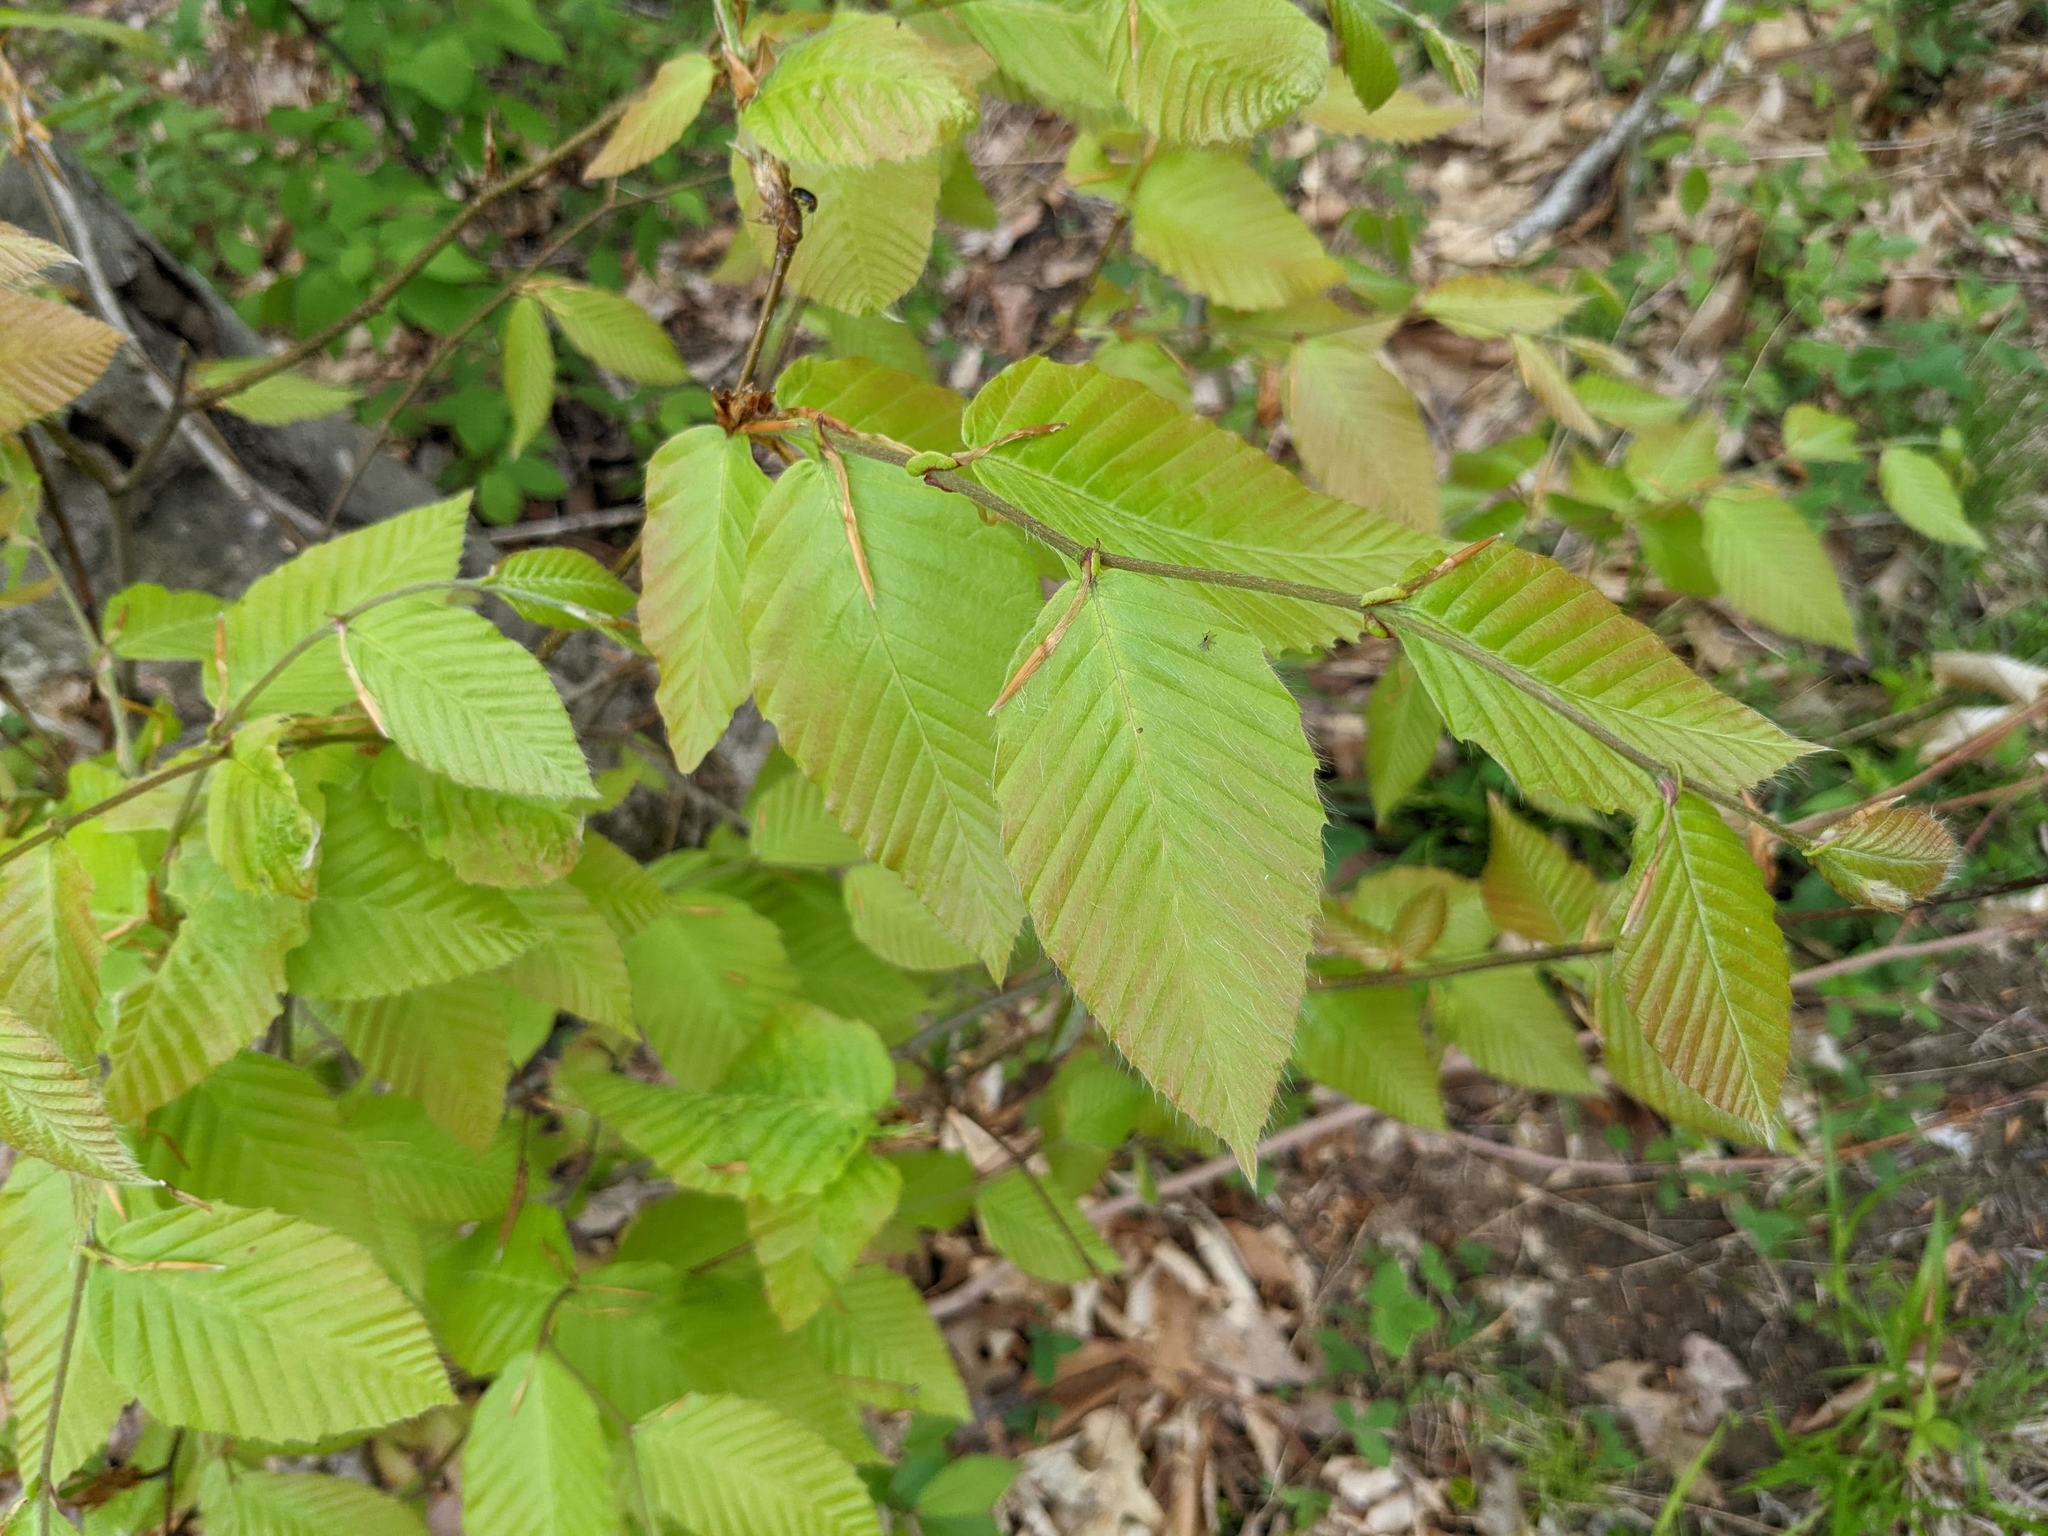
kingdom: Plantae
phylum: Tracheophyta
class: Magnoliopsida
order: Fagales
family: Fagaceae
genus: Fagus
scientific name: Fagus grandifolia
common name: American beech
